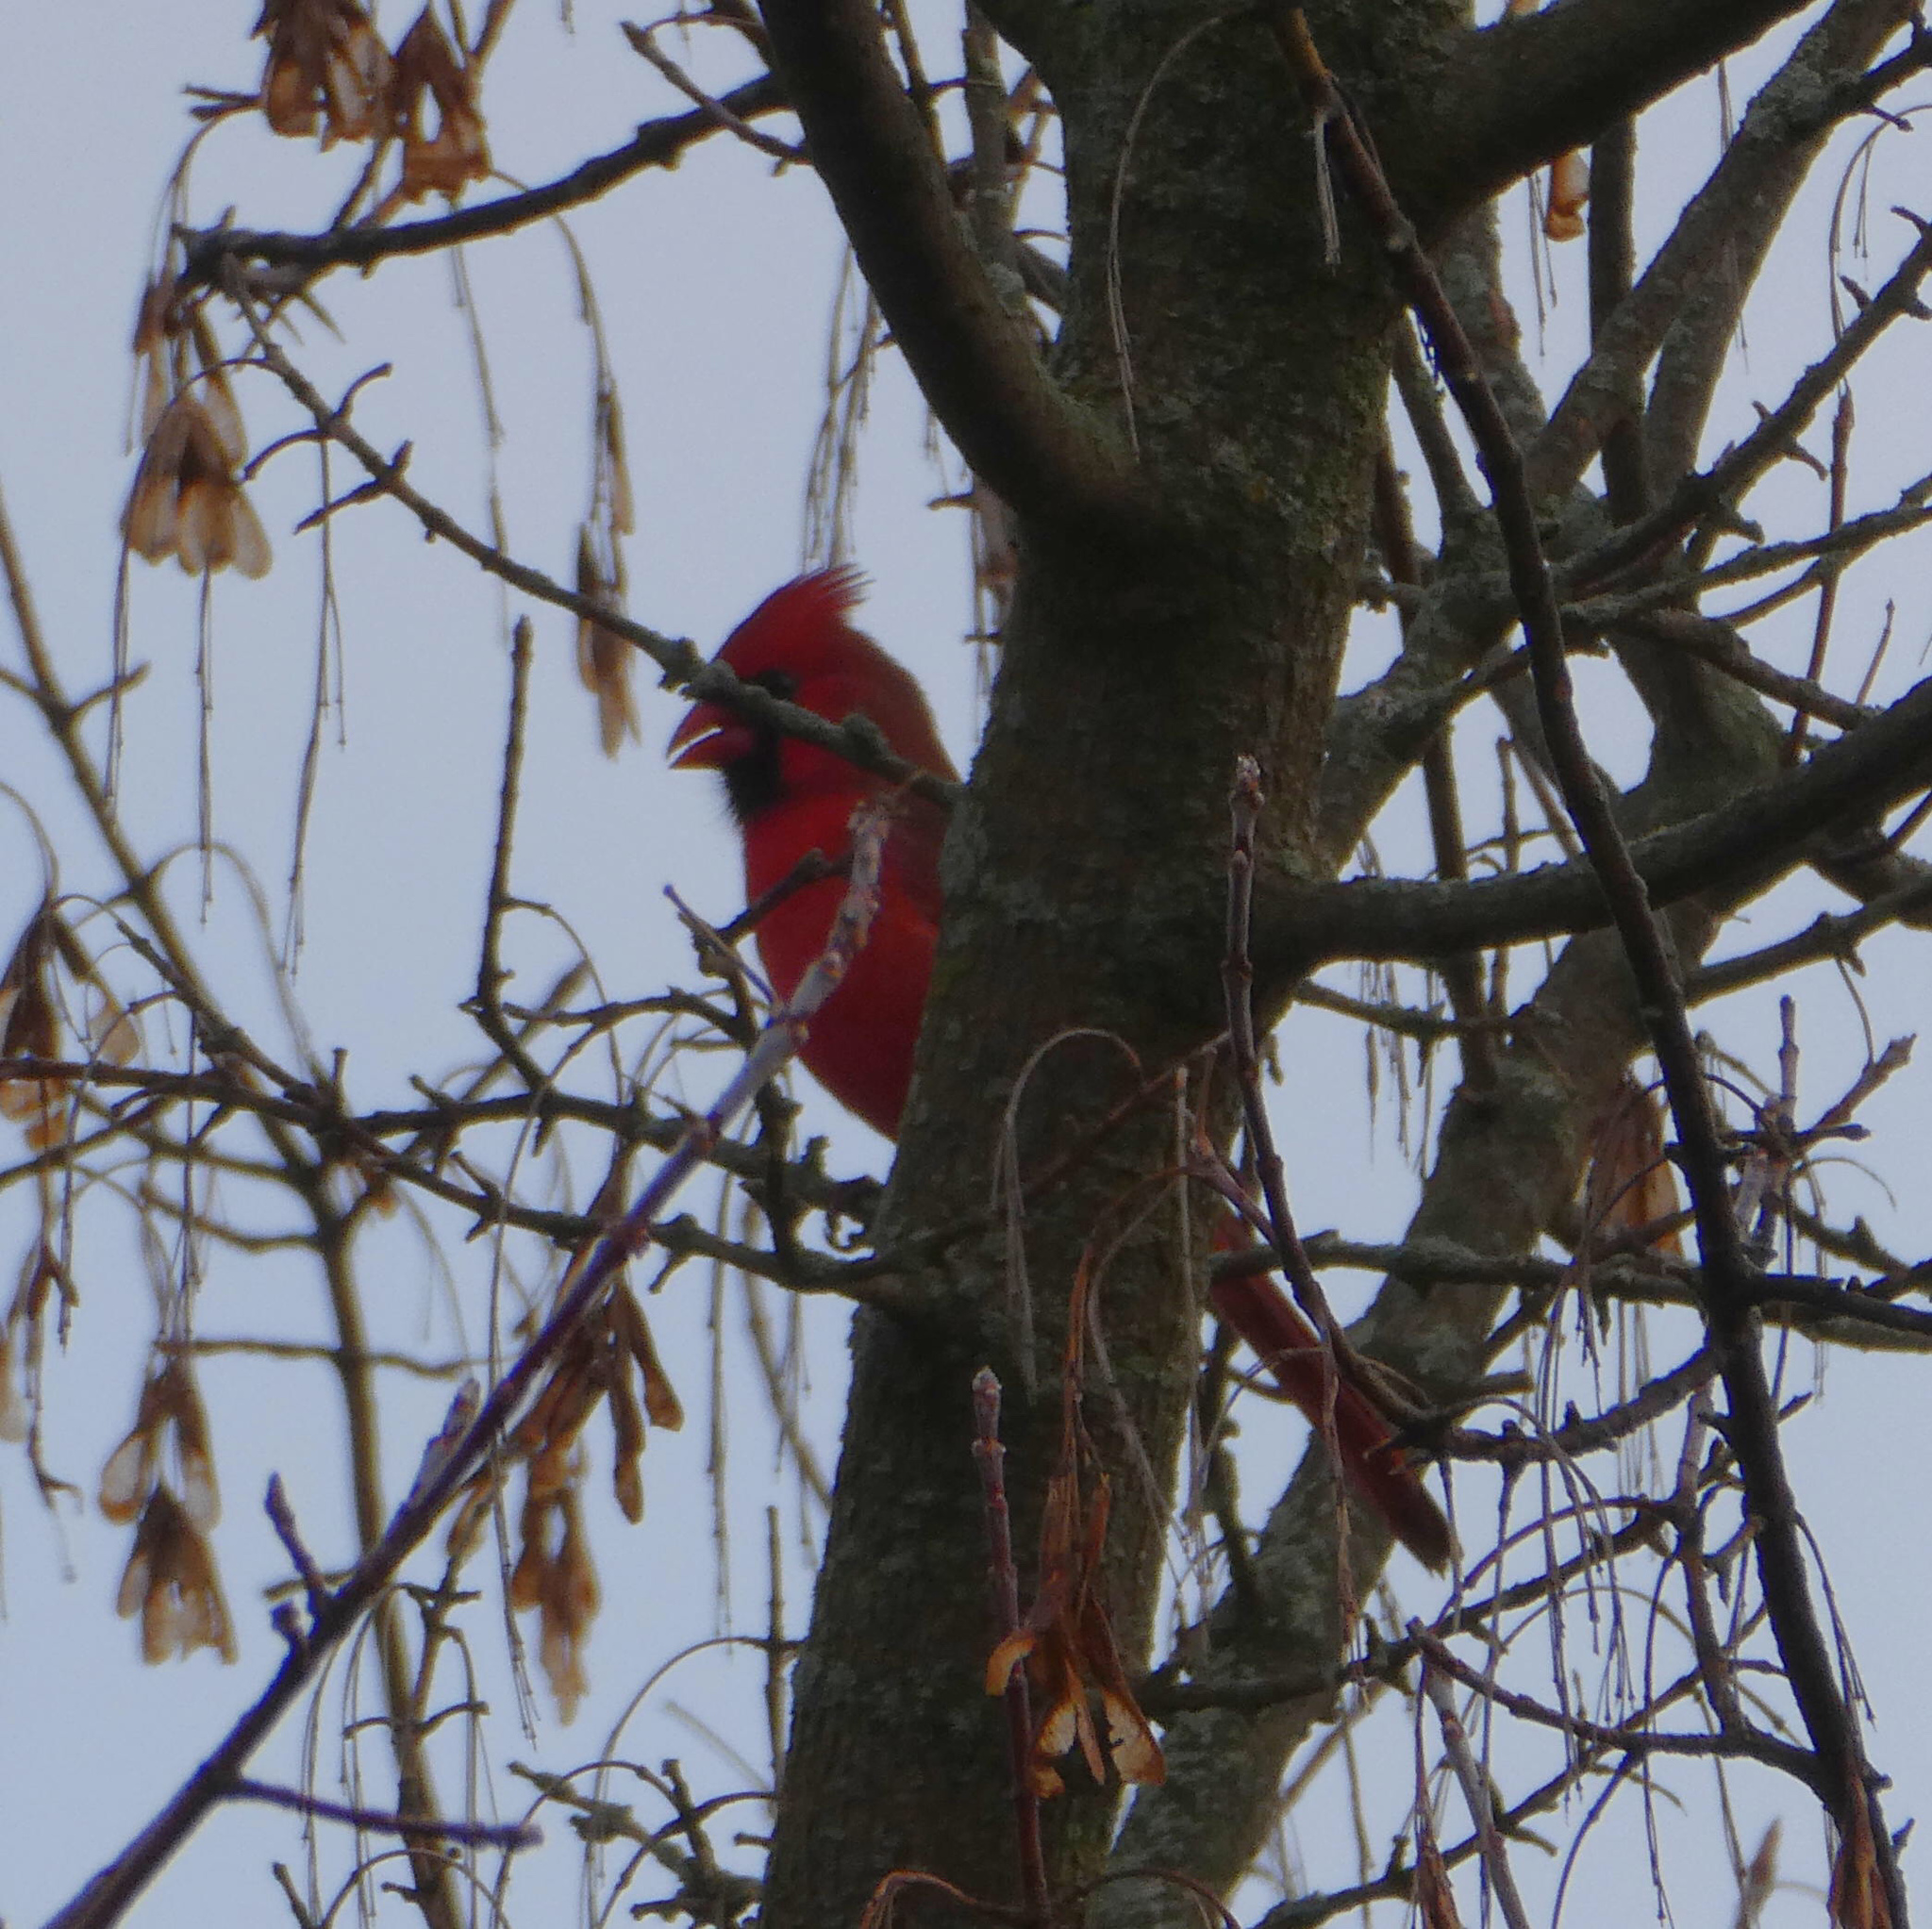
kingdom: Animalia
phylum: Chordata
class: Aves
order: Passeriformes
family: Cardinalidae
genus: Cardinalis
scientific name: Cardinalis cardinalis
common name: Northern cardinal
